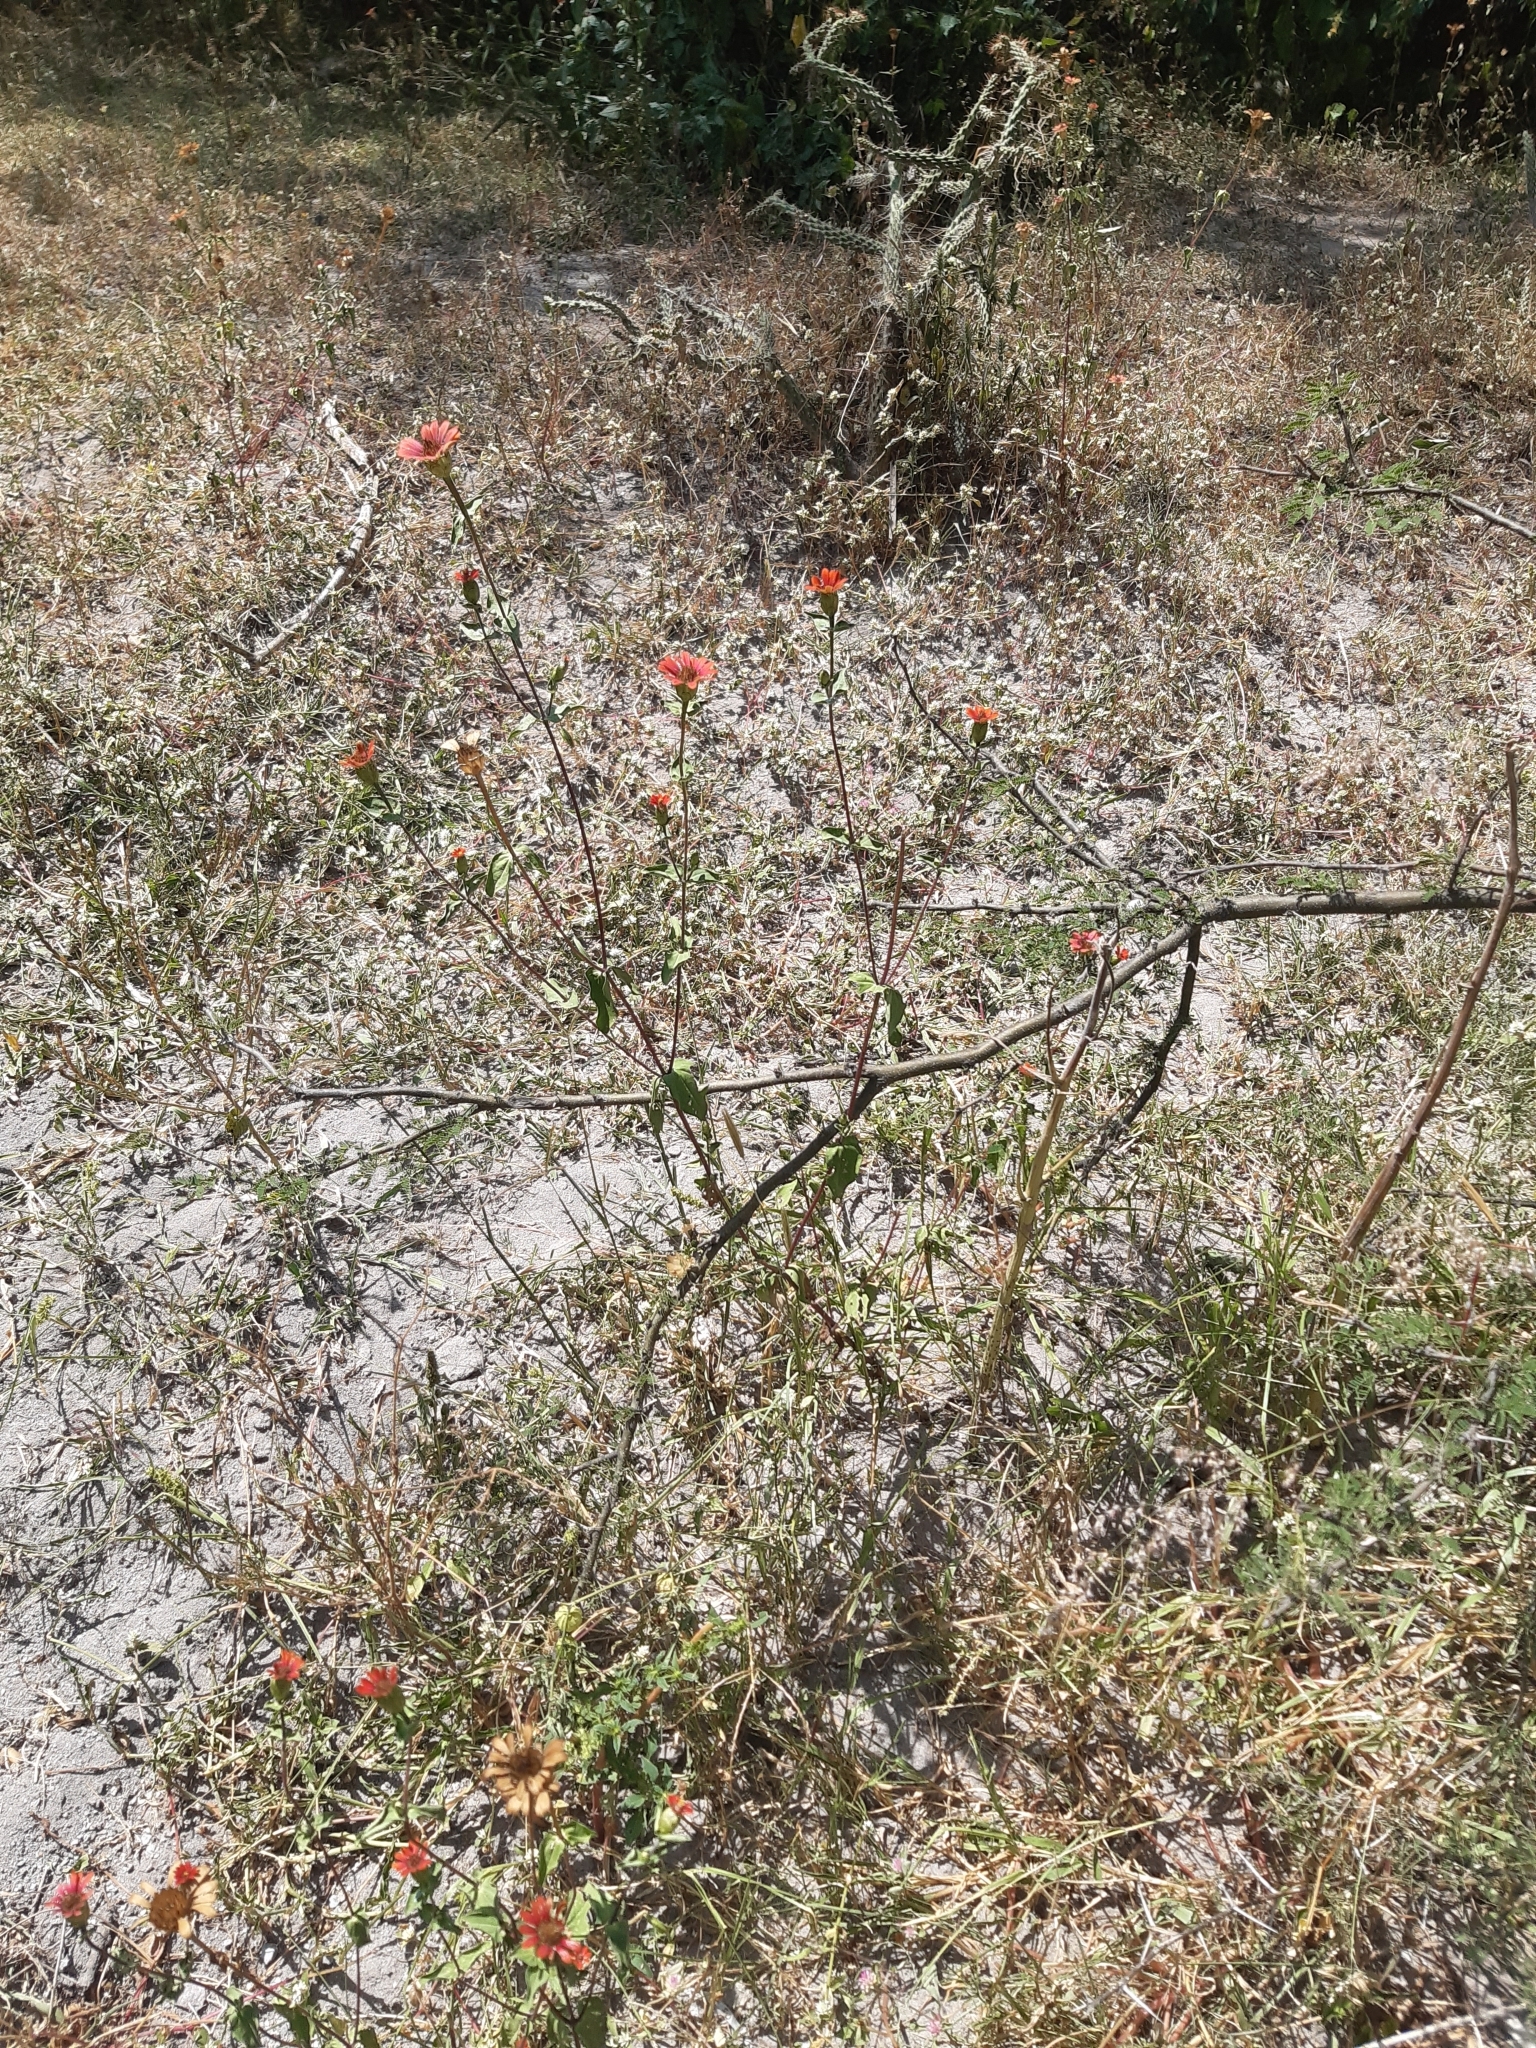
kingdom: Plantae
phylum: Tracheophyta
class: Magnoliopsida
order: Asterales
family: Asteraceae
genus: Zinnia
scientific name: Zinnia peruviana
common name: Peruvian zinnia
